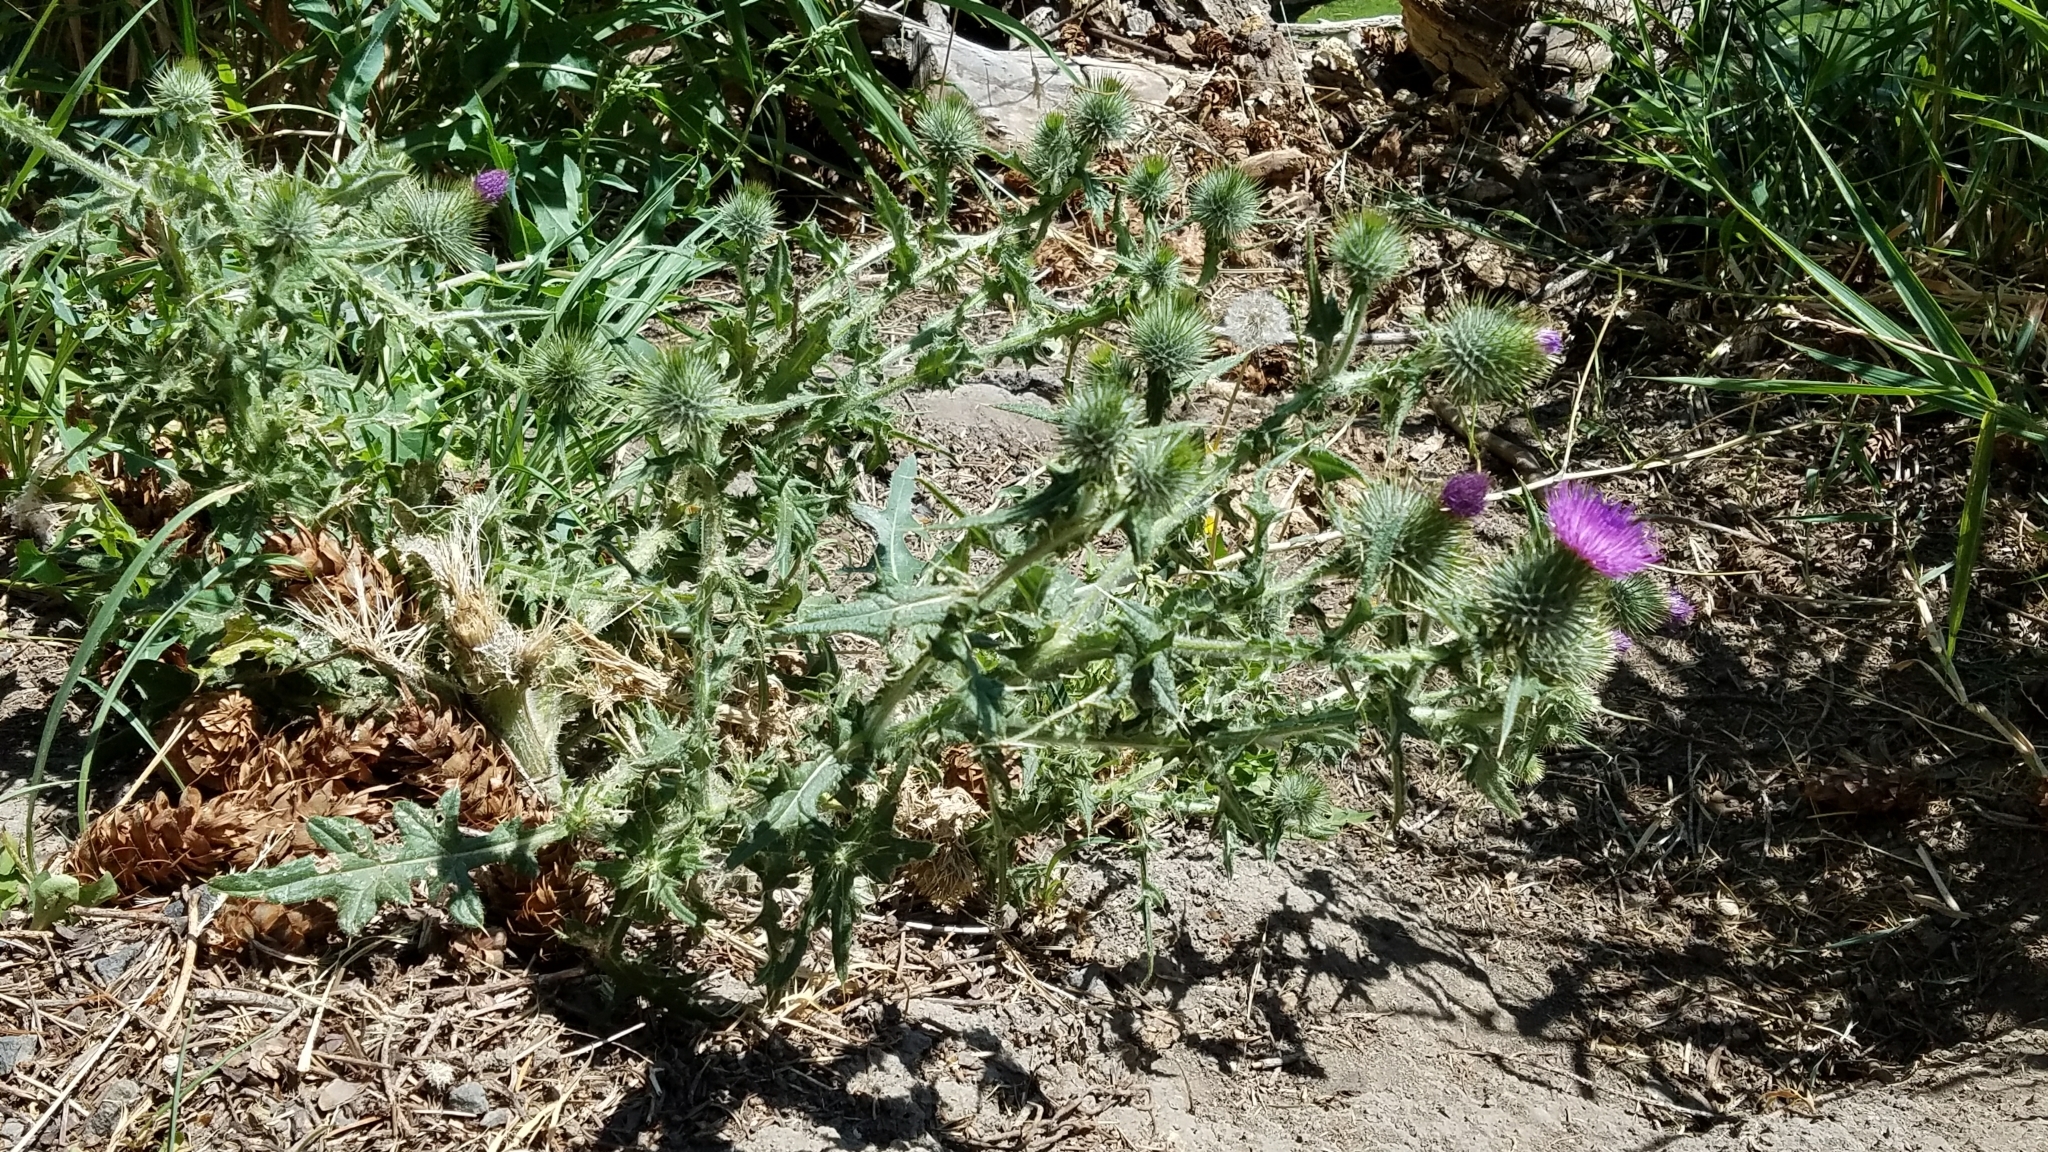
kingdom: Plantae
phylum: Tracheophyta
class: Magnoliopsida
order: Asterales
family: Asteraceae
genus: Cirsium
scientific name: Cirsium vulgare
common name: Bull thistle
